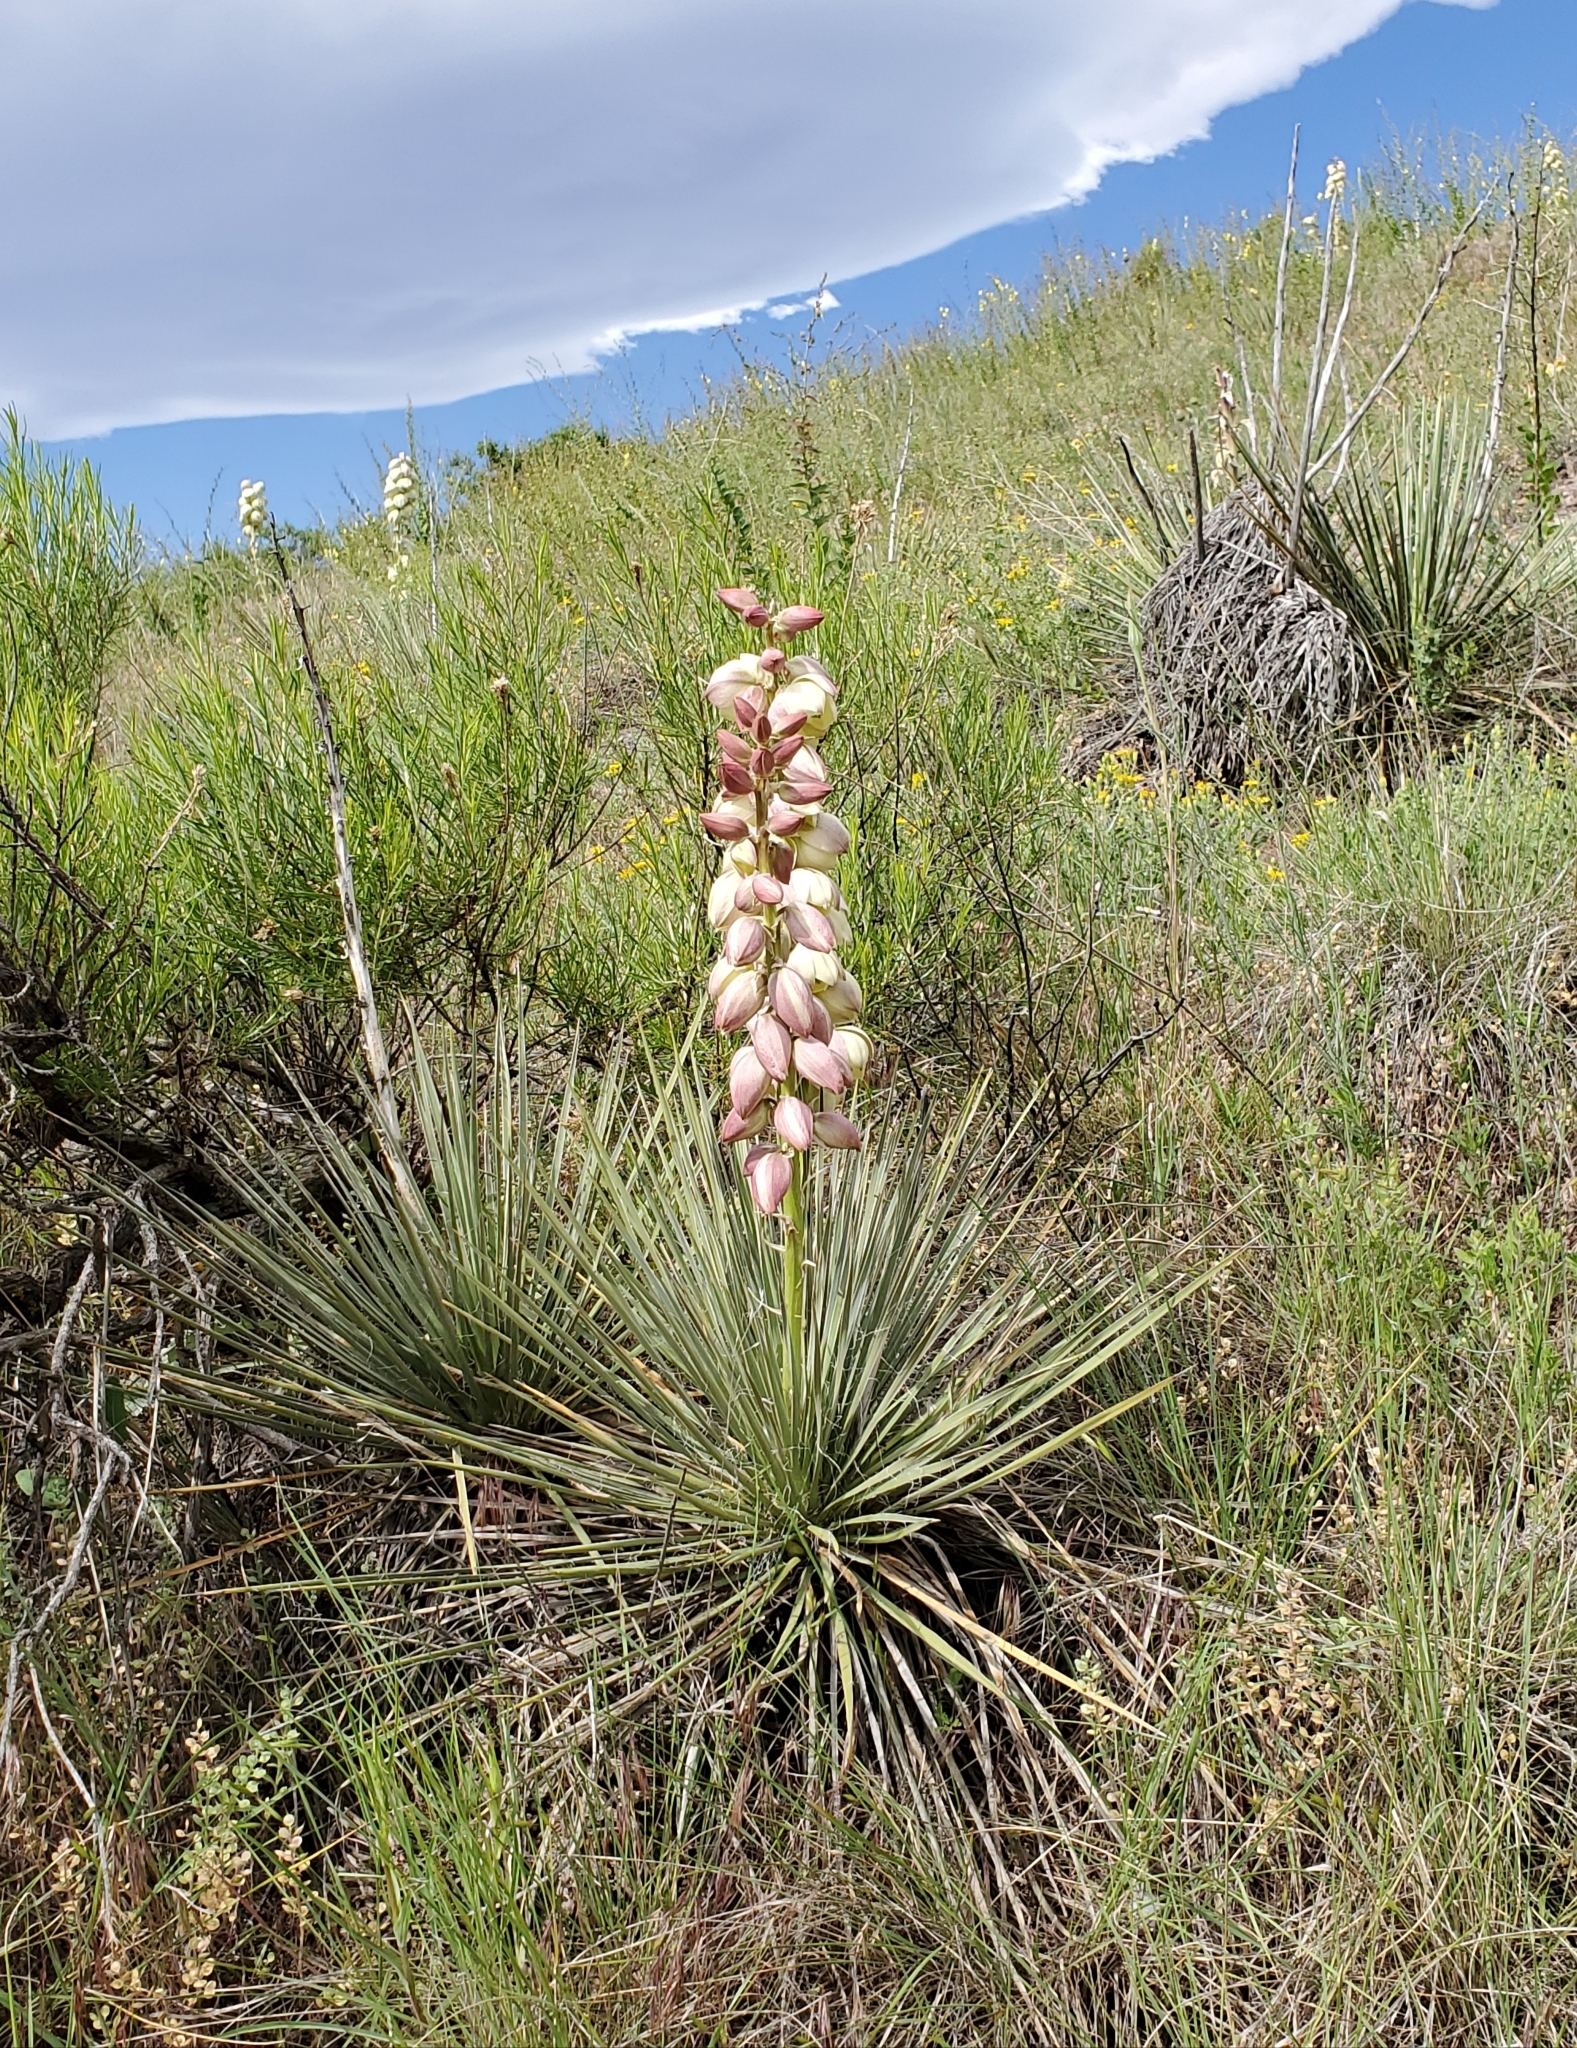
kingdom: Plantae
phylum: Tracheophyta
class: Liliopsida
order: Asparagales
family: Asparagaceae
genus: Yucca
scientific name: Yucca glauca
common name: Great plains yucca
